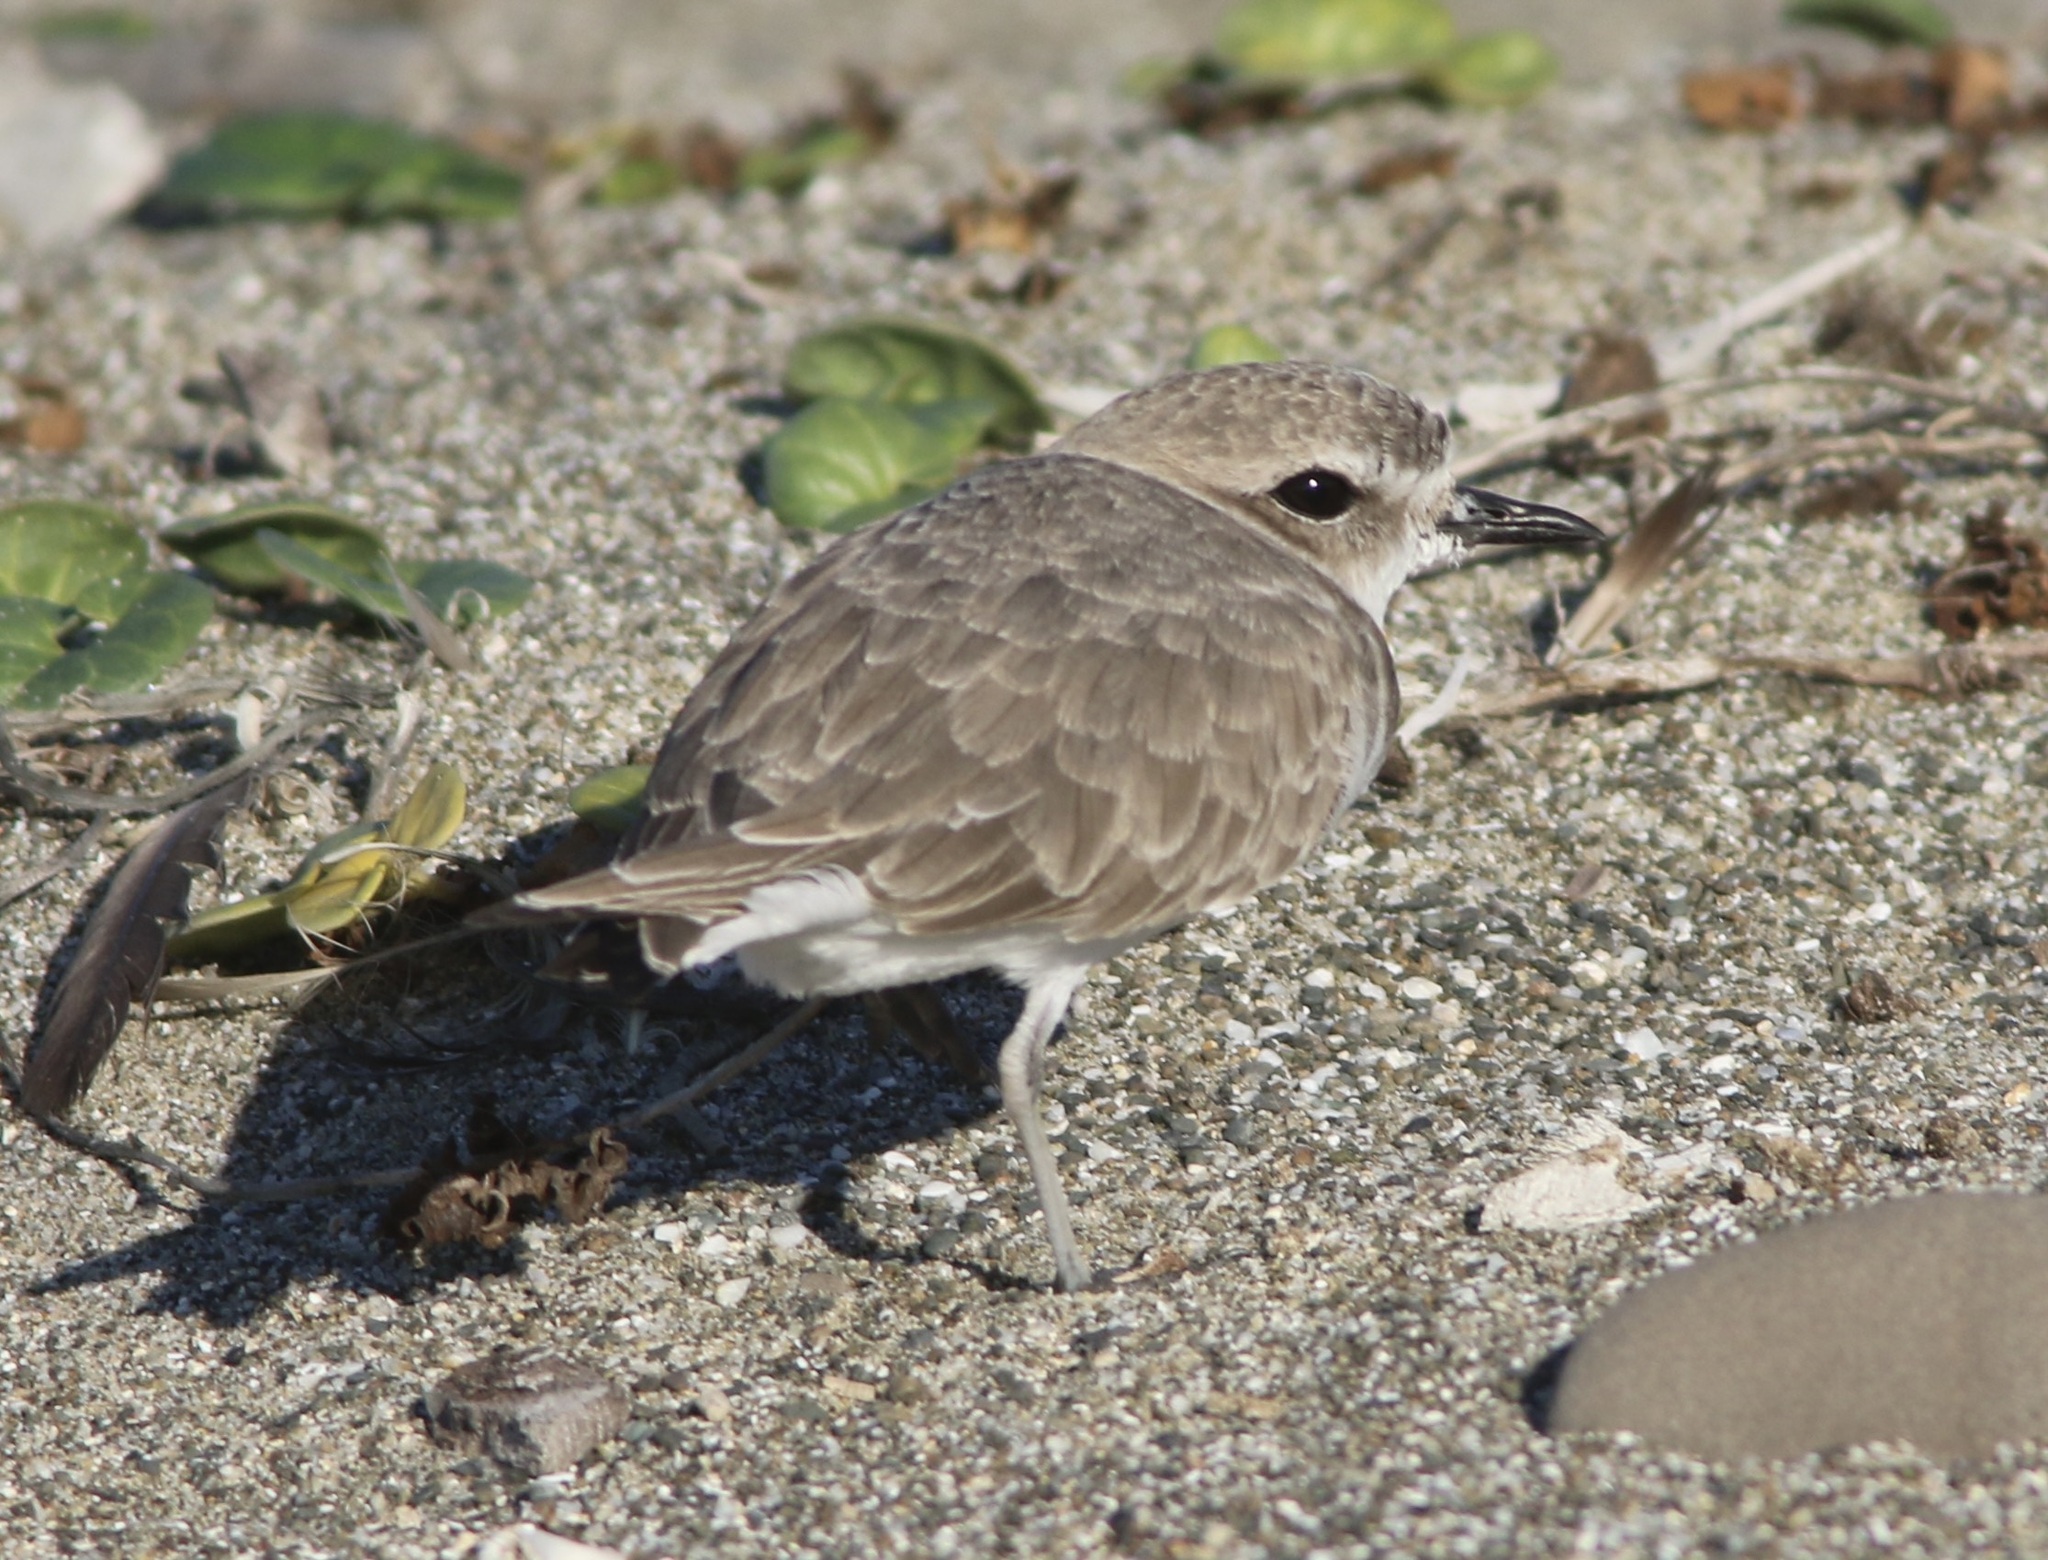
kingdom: Animalia
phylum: Chordata
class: Aves
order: Charadriiformes
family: Charadriidae
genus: Anarhynchus
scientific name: Anarhynchus
